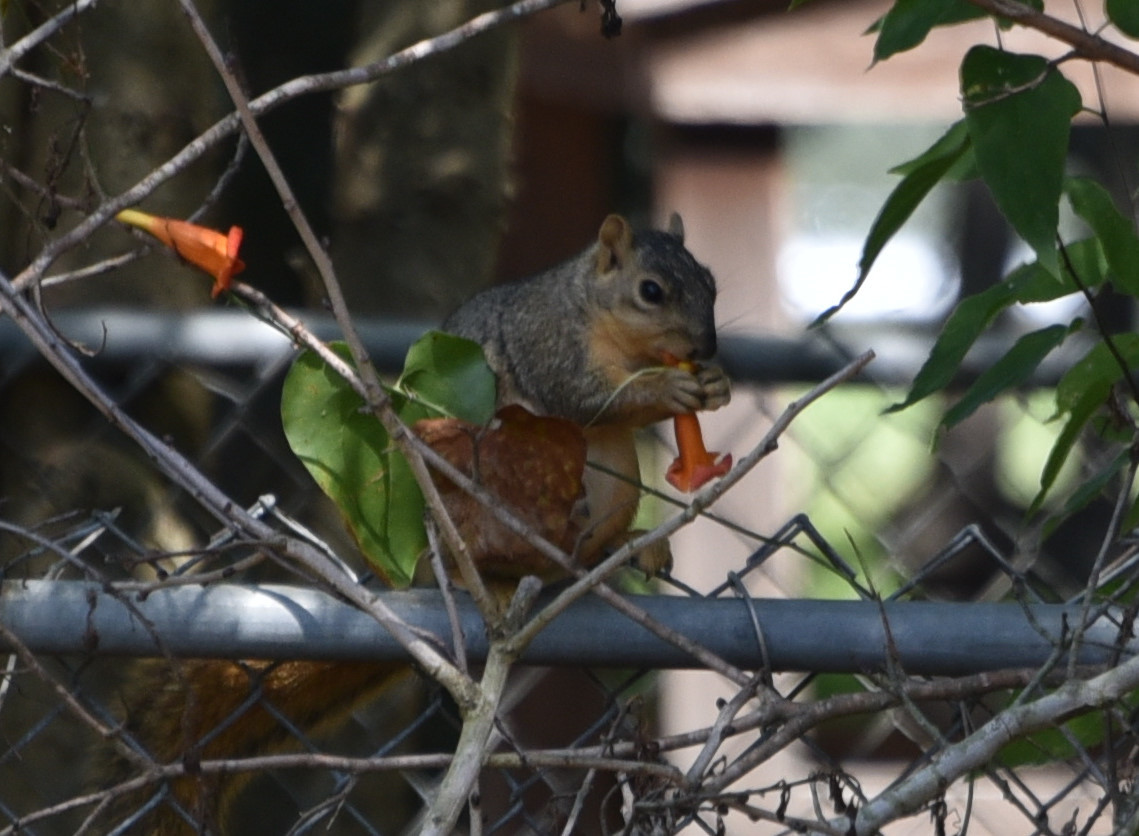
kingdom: Animalia
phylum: Chordata
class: Mammalia
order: Rodentia
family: Sciuridae
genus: Sciurus
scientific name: Sciurus niger
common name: Fox squirrel
